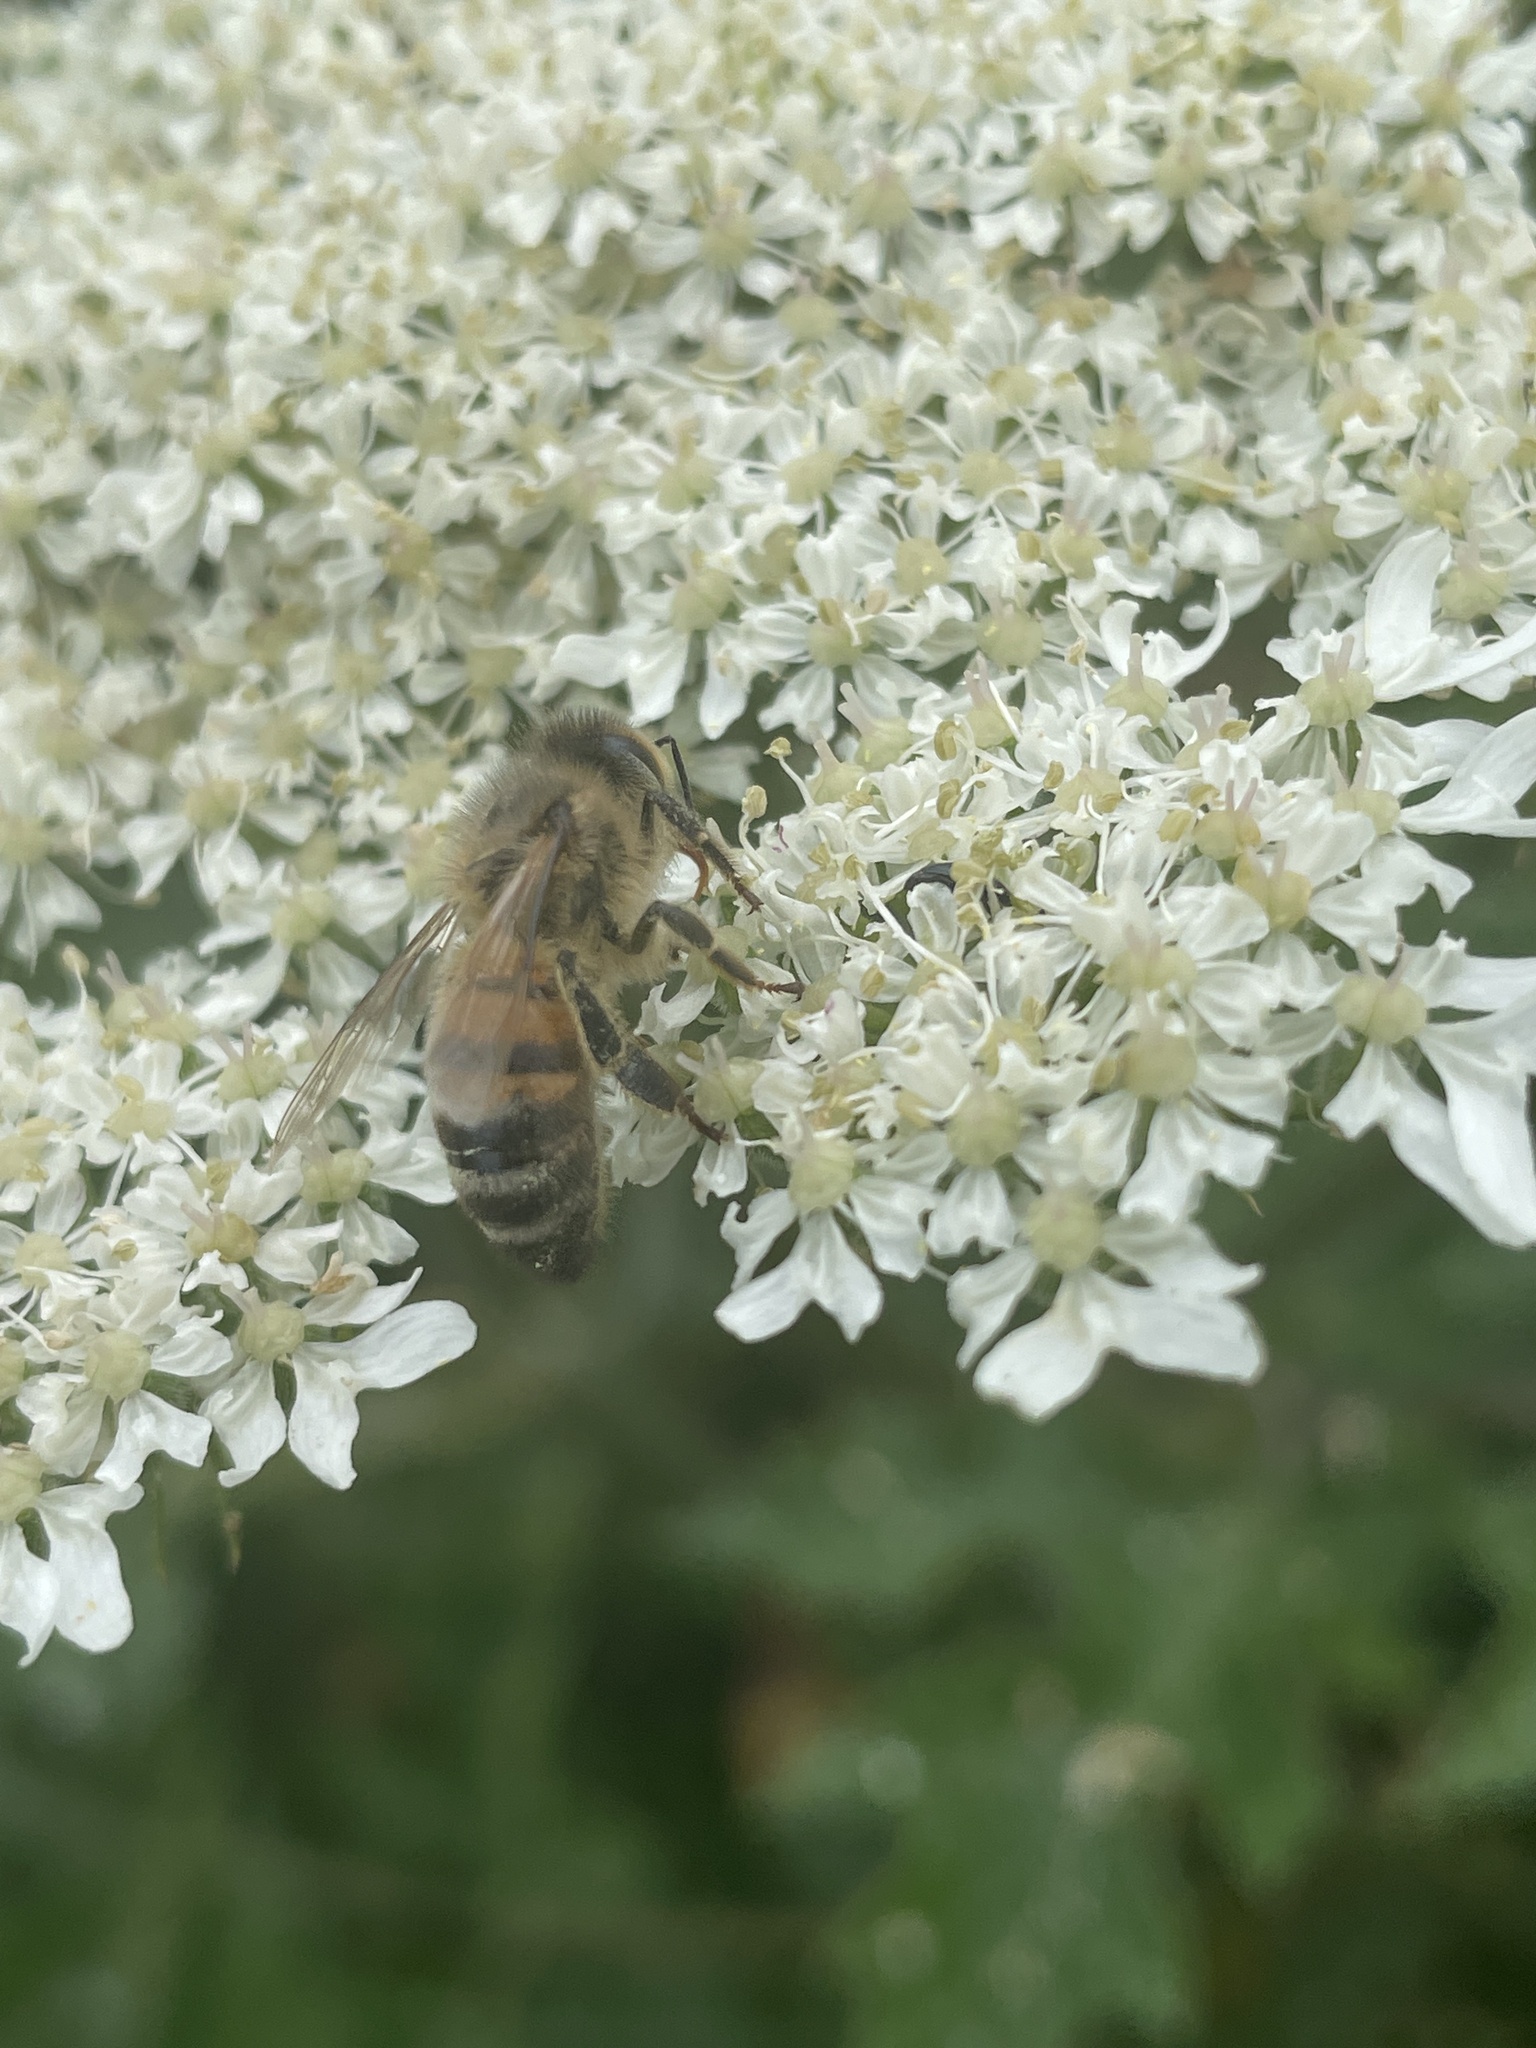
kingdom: Animalia
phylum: Arthropoda
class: Insecta
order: Hymenoptera
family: Apidae
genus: Apis
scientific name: Apis mellifera
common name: Honey bee
